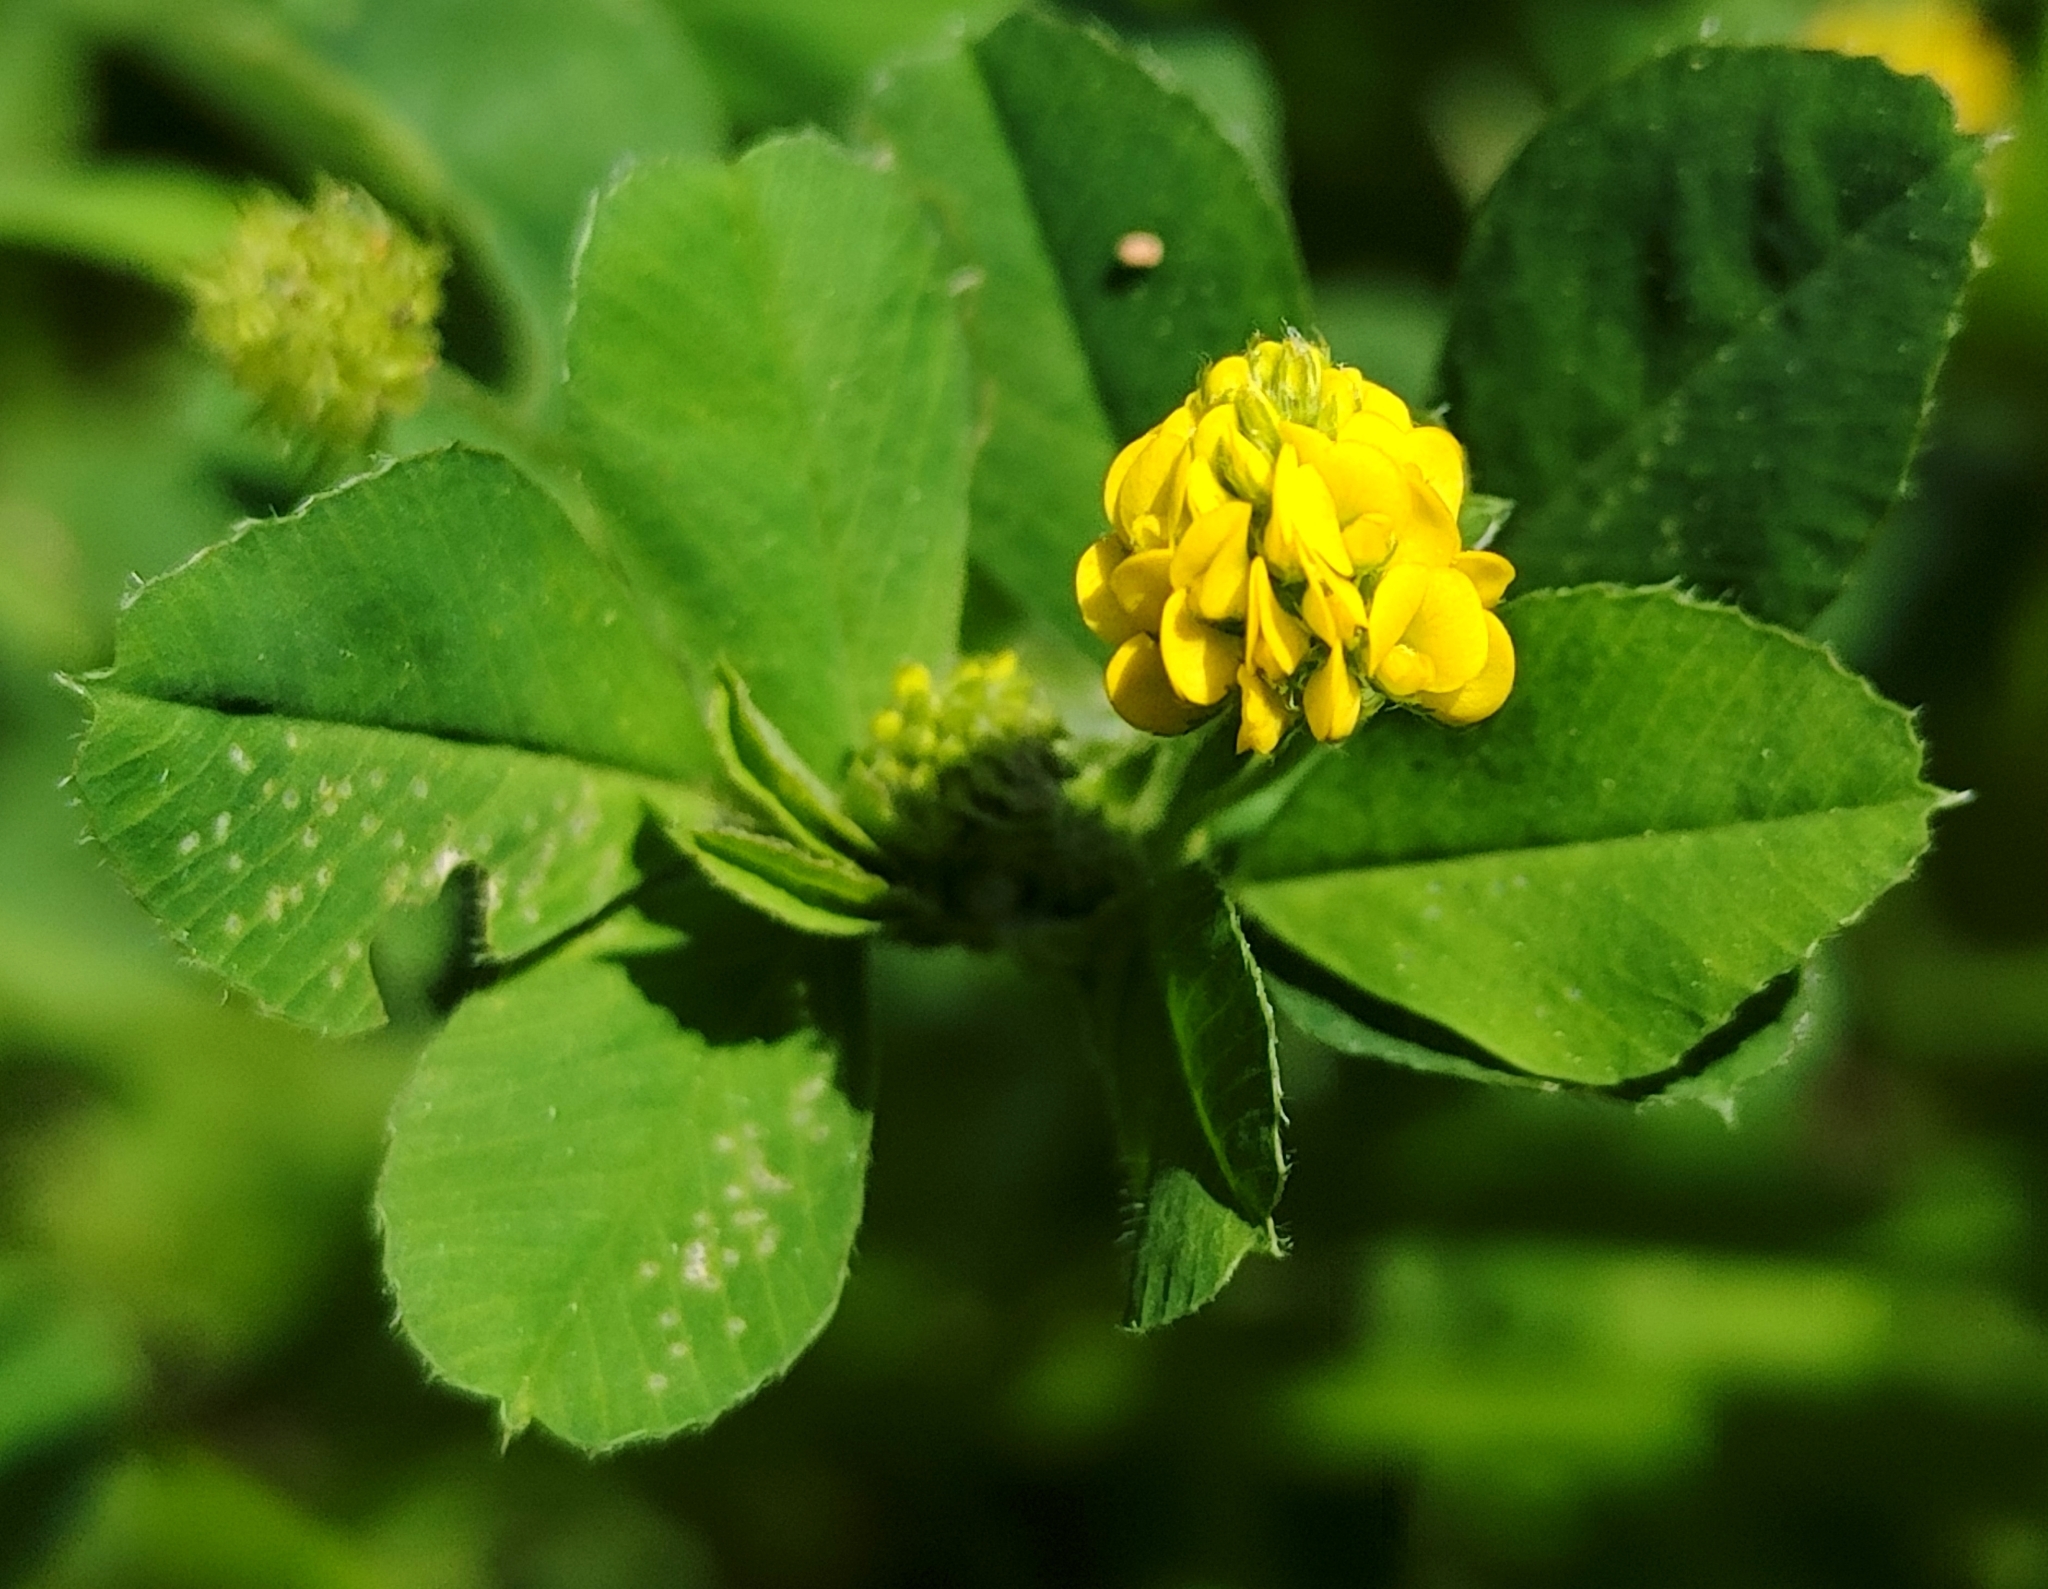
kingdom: Plantae
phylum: Tracheophyta
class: Magnoliopsida
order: Fabales
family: Fabaceae
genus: Medicago
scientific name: Medicago lupulina
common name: Black medick
